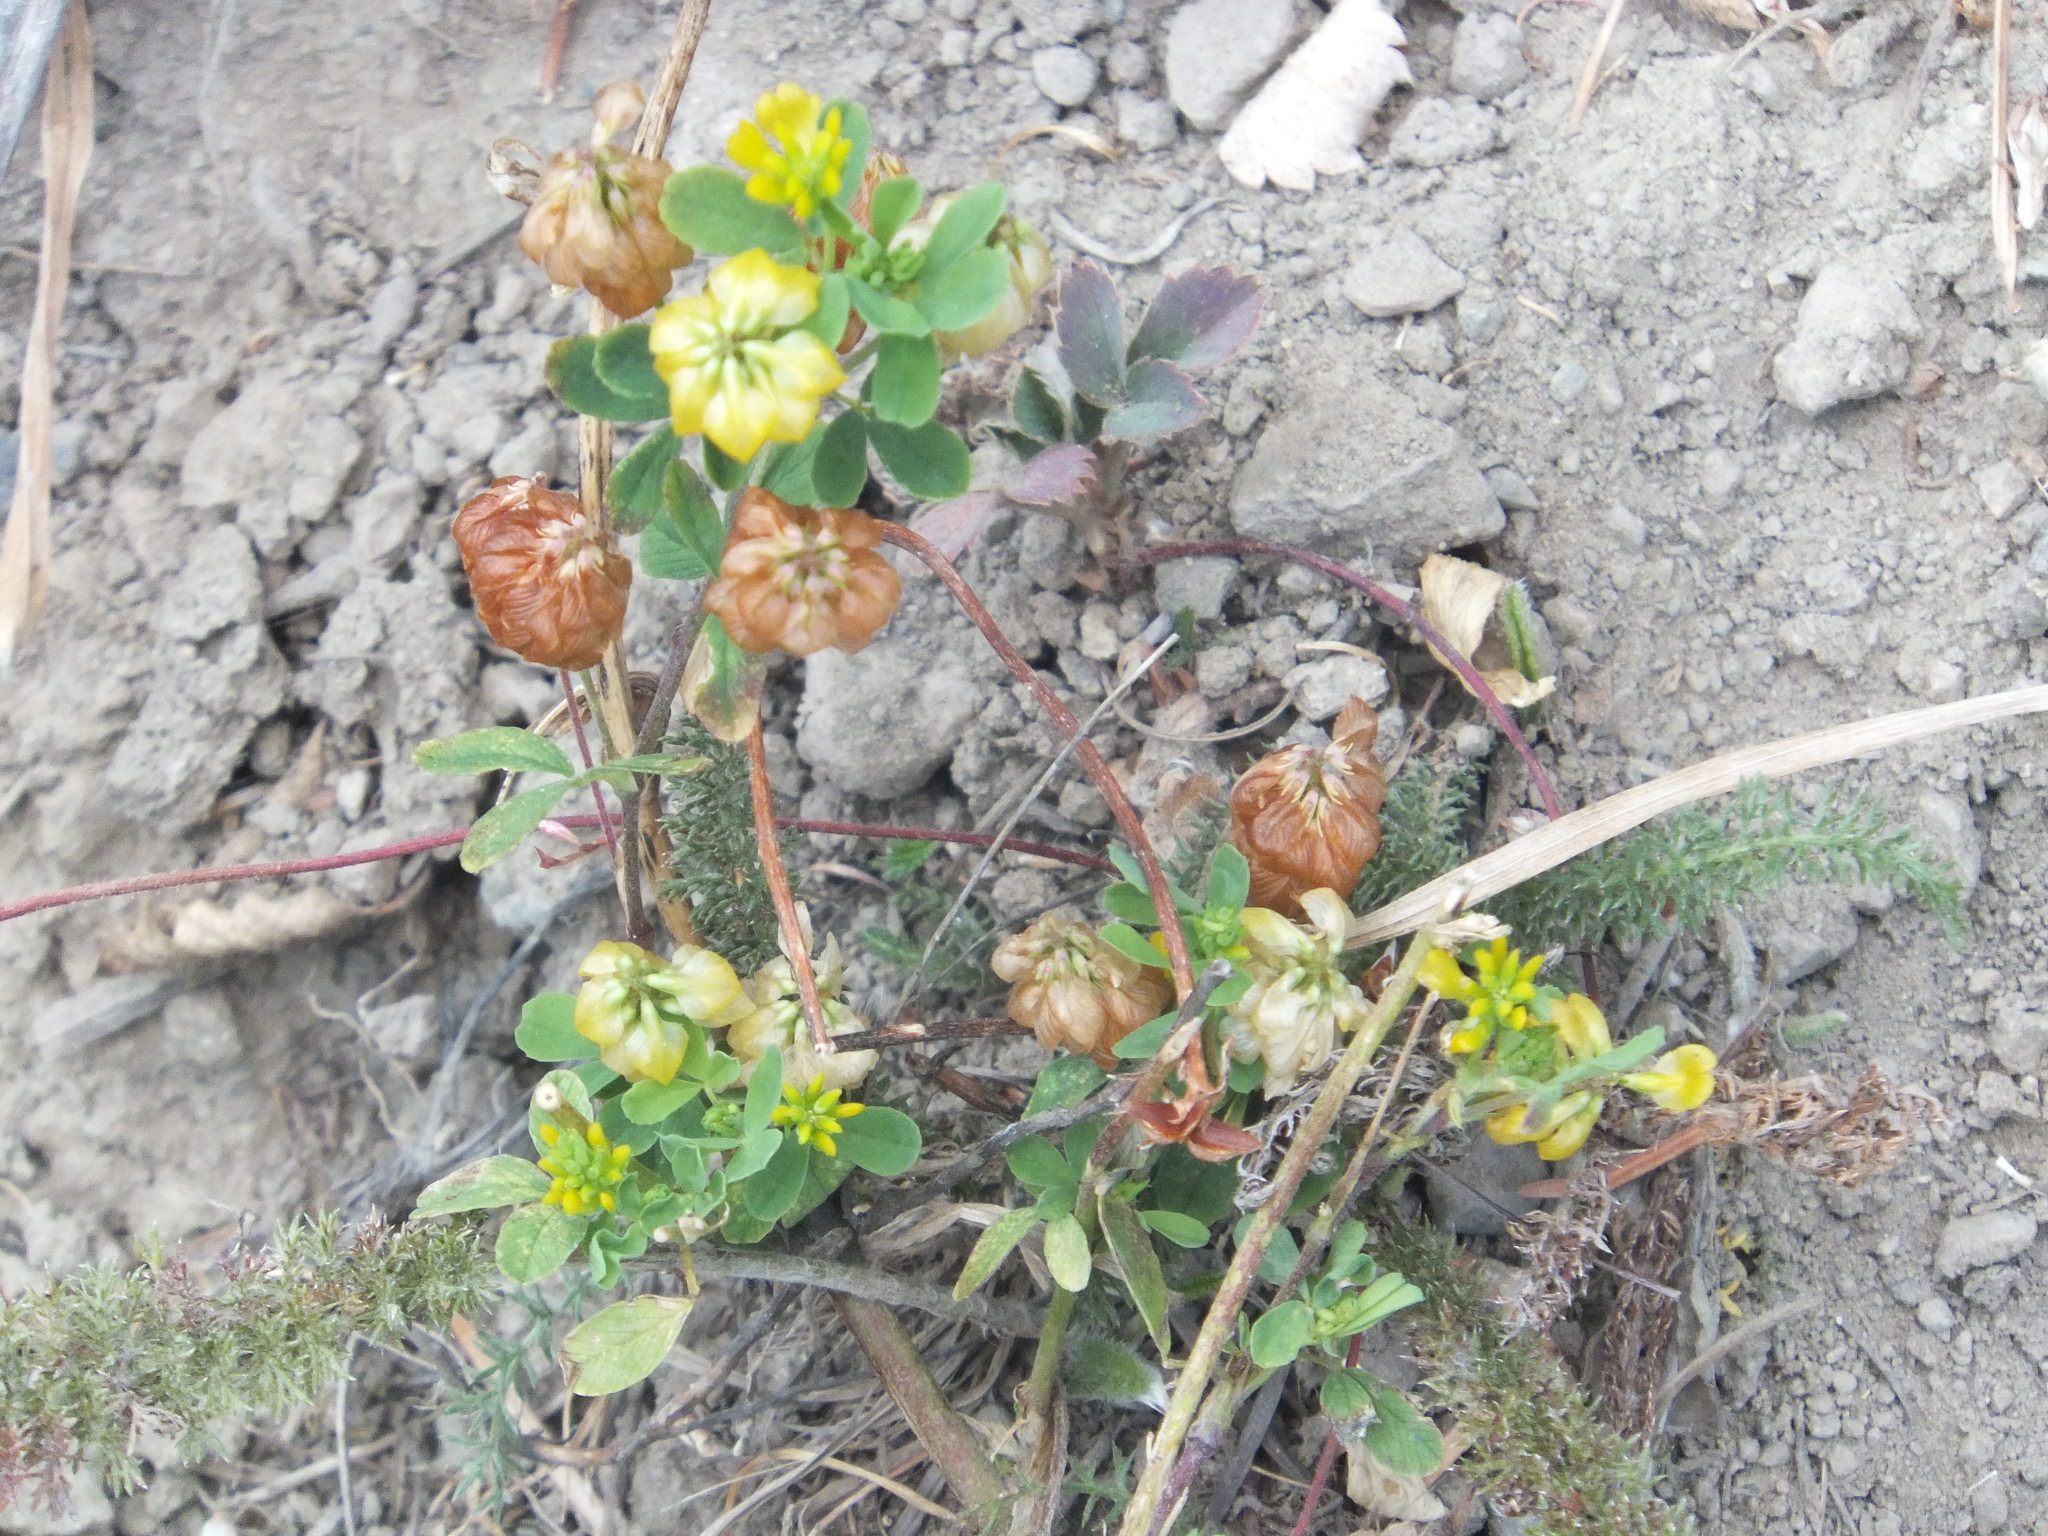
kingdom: Plantae
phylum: Tracheophyta
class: Magnoliopsida
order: Fabales
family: Fabaceae
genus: Trifolium
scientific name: Trifolium aureum
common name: Golden clover
